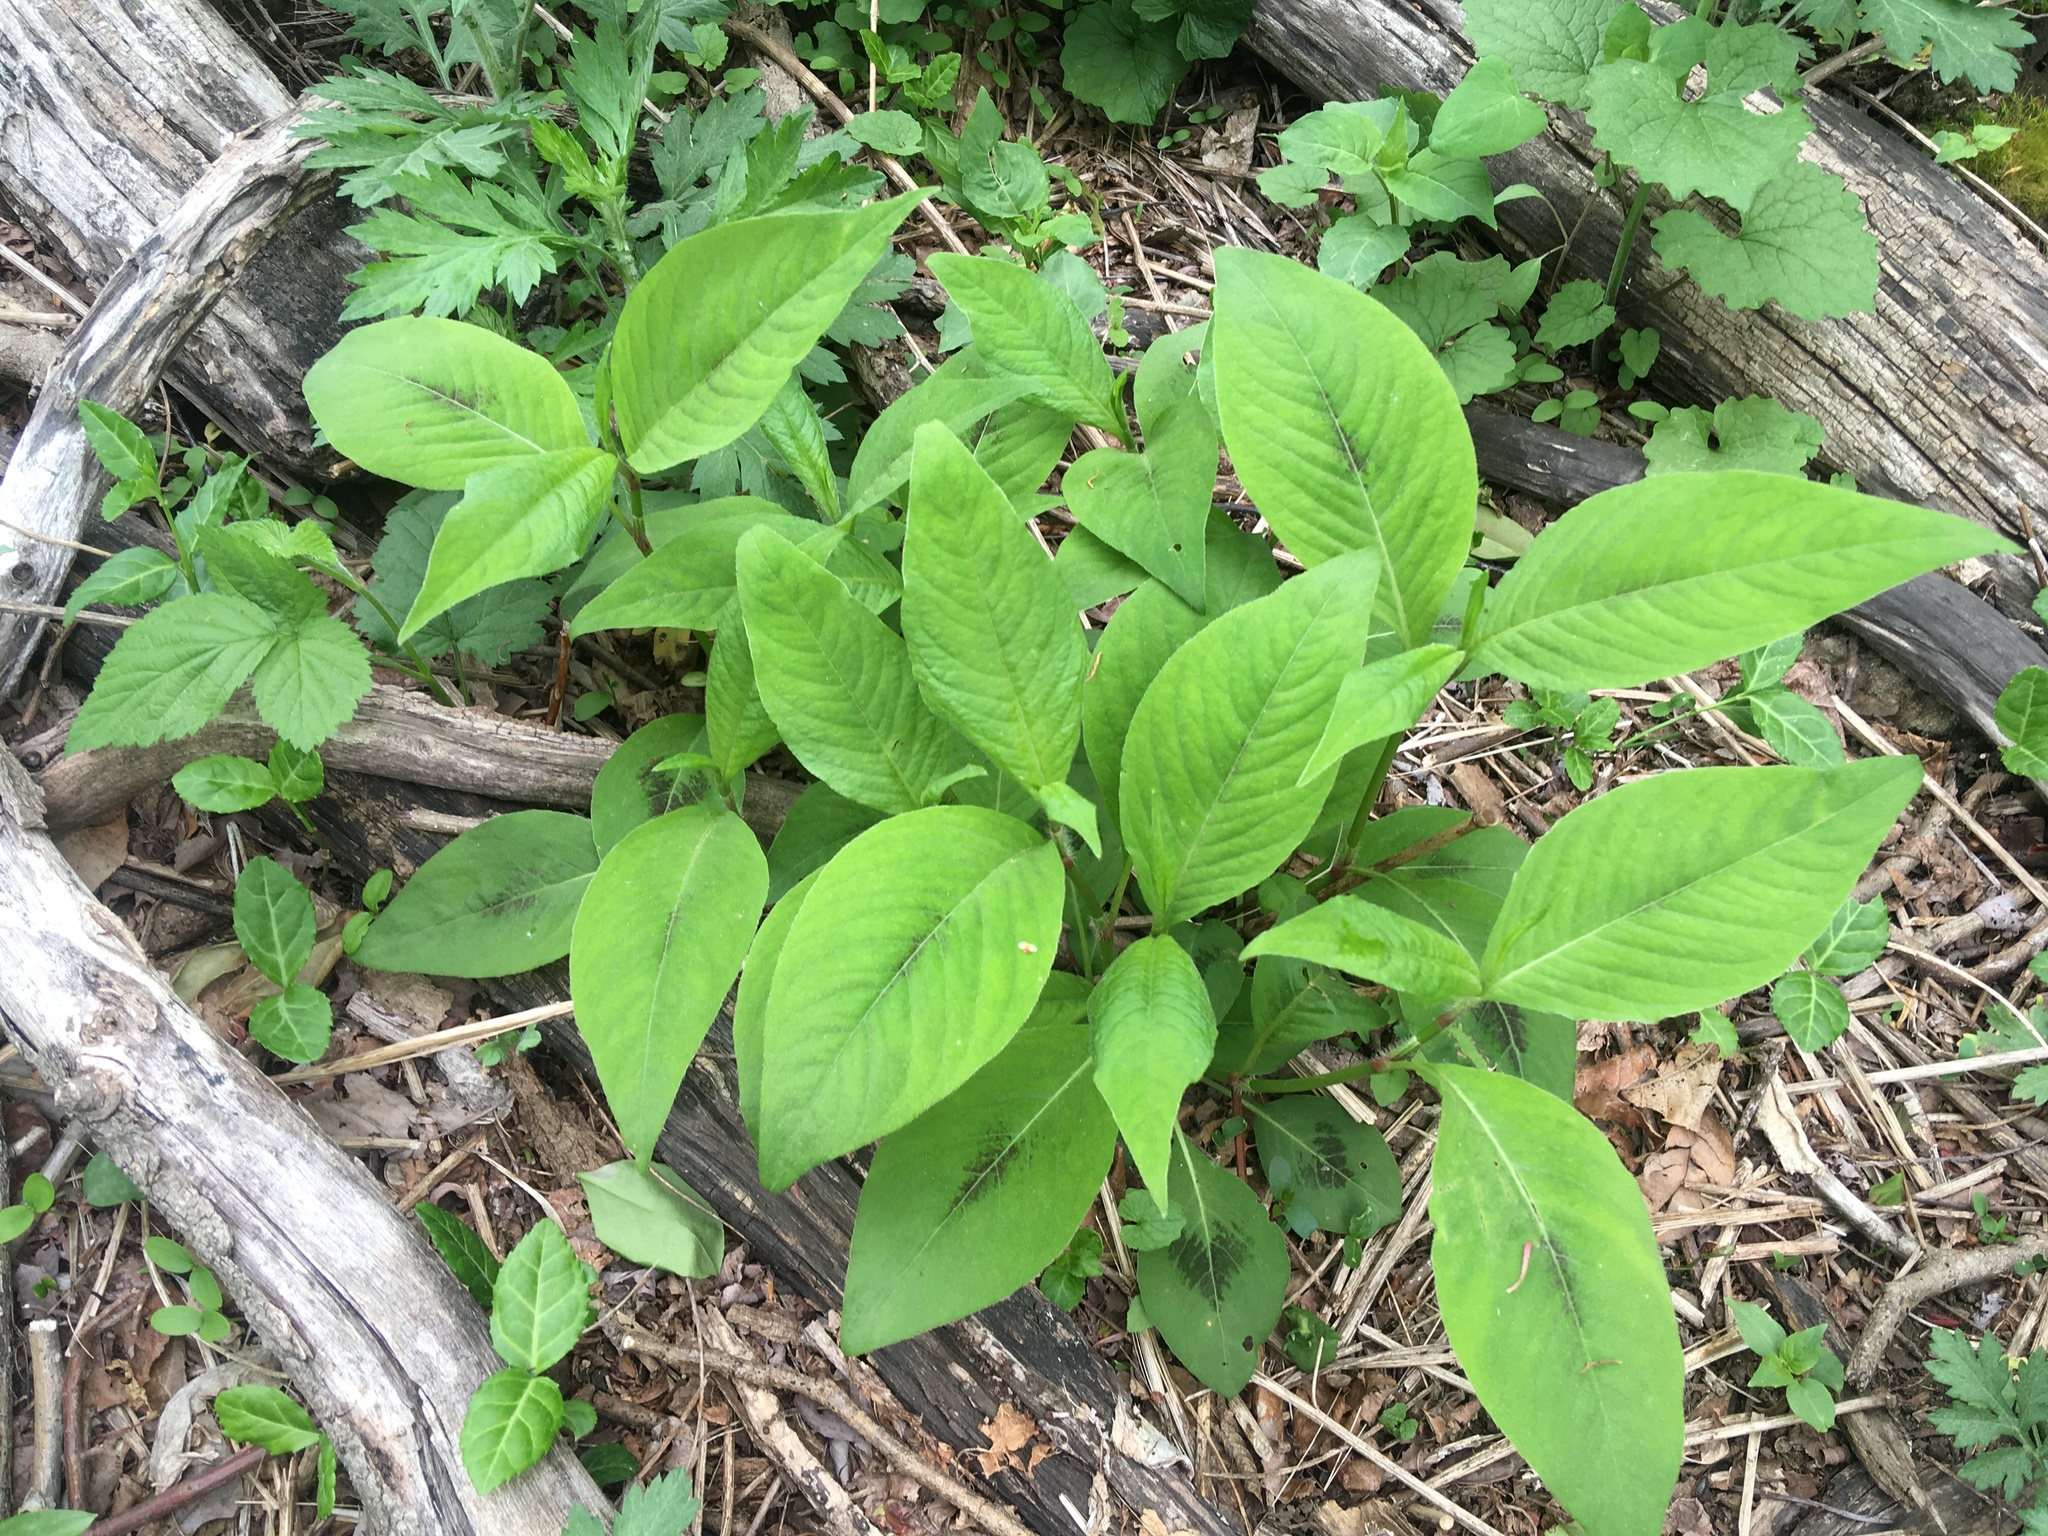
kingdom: Plantae
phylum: Tracheophyta
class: Magnoliopsida
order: Caryophyllales
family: Polygonaceae
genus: Persicaria
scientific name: Persicaria virginiana
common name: Jumpseed
